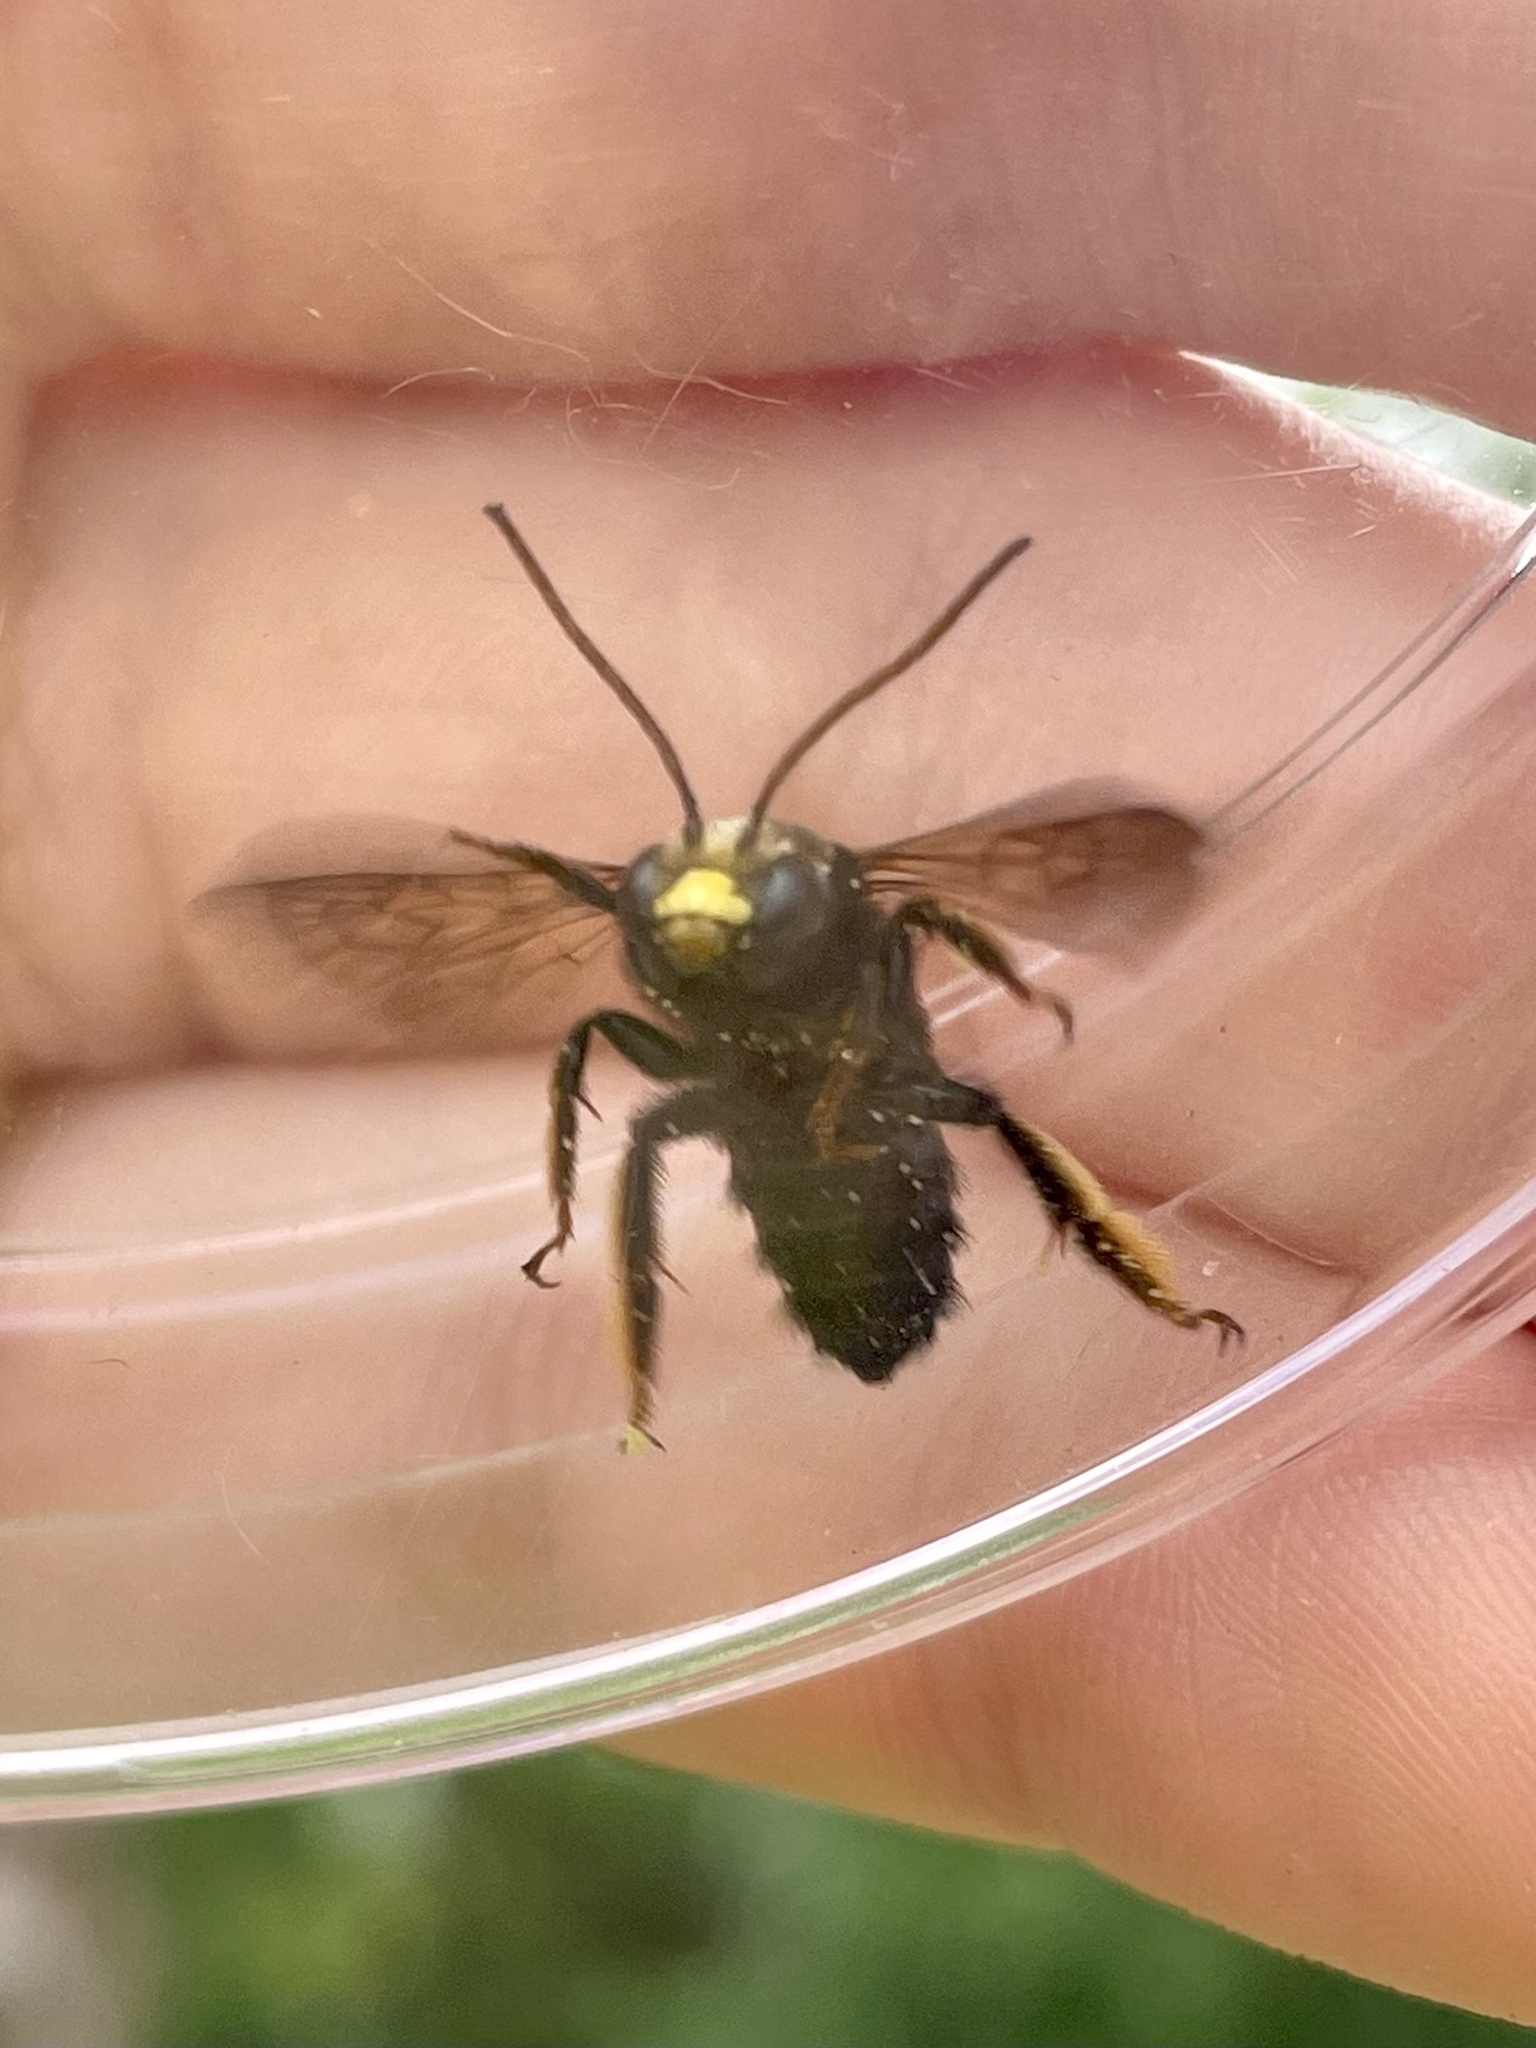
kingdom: Animalia
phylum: Arthropoda
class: Insecta
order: Hymenoptera
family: Apidae
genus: Melissodes
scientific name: Melissodes bimaculatus
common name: Two-spotted long-horned bee
